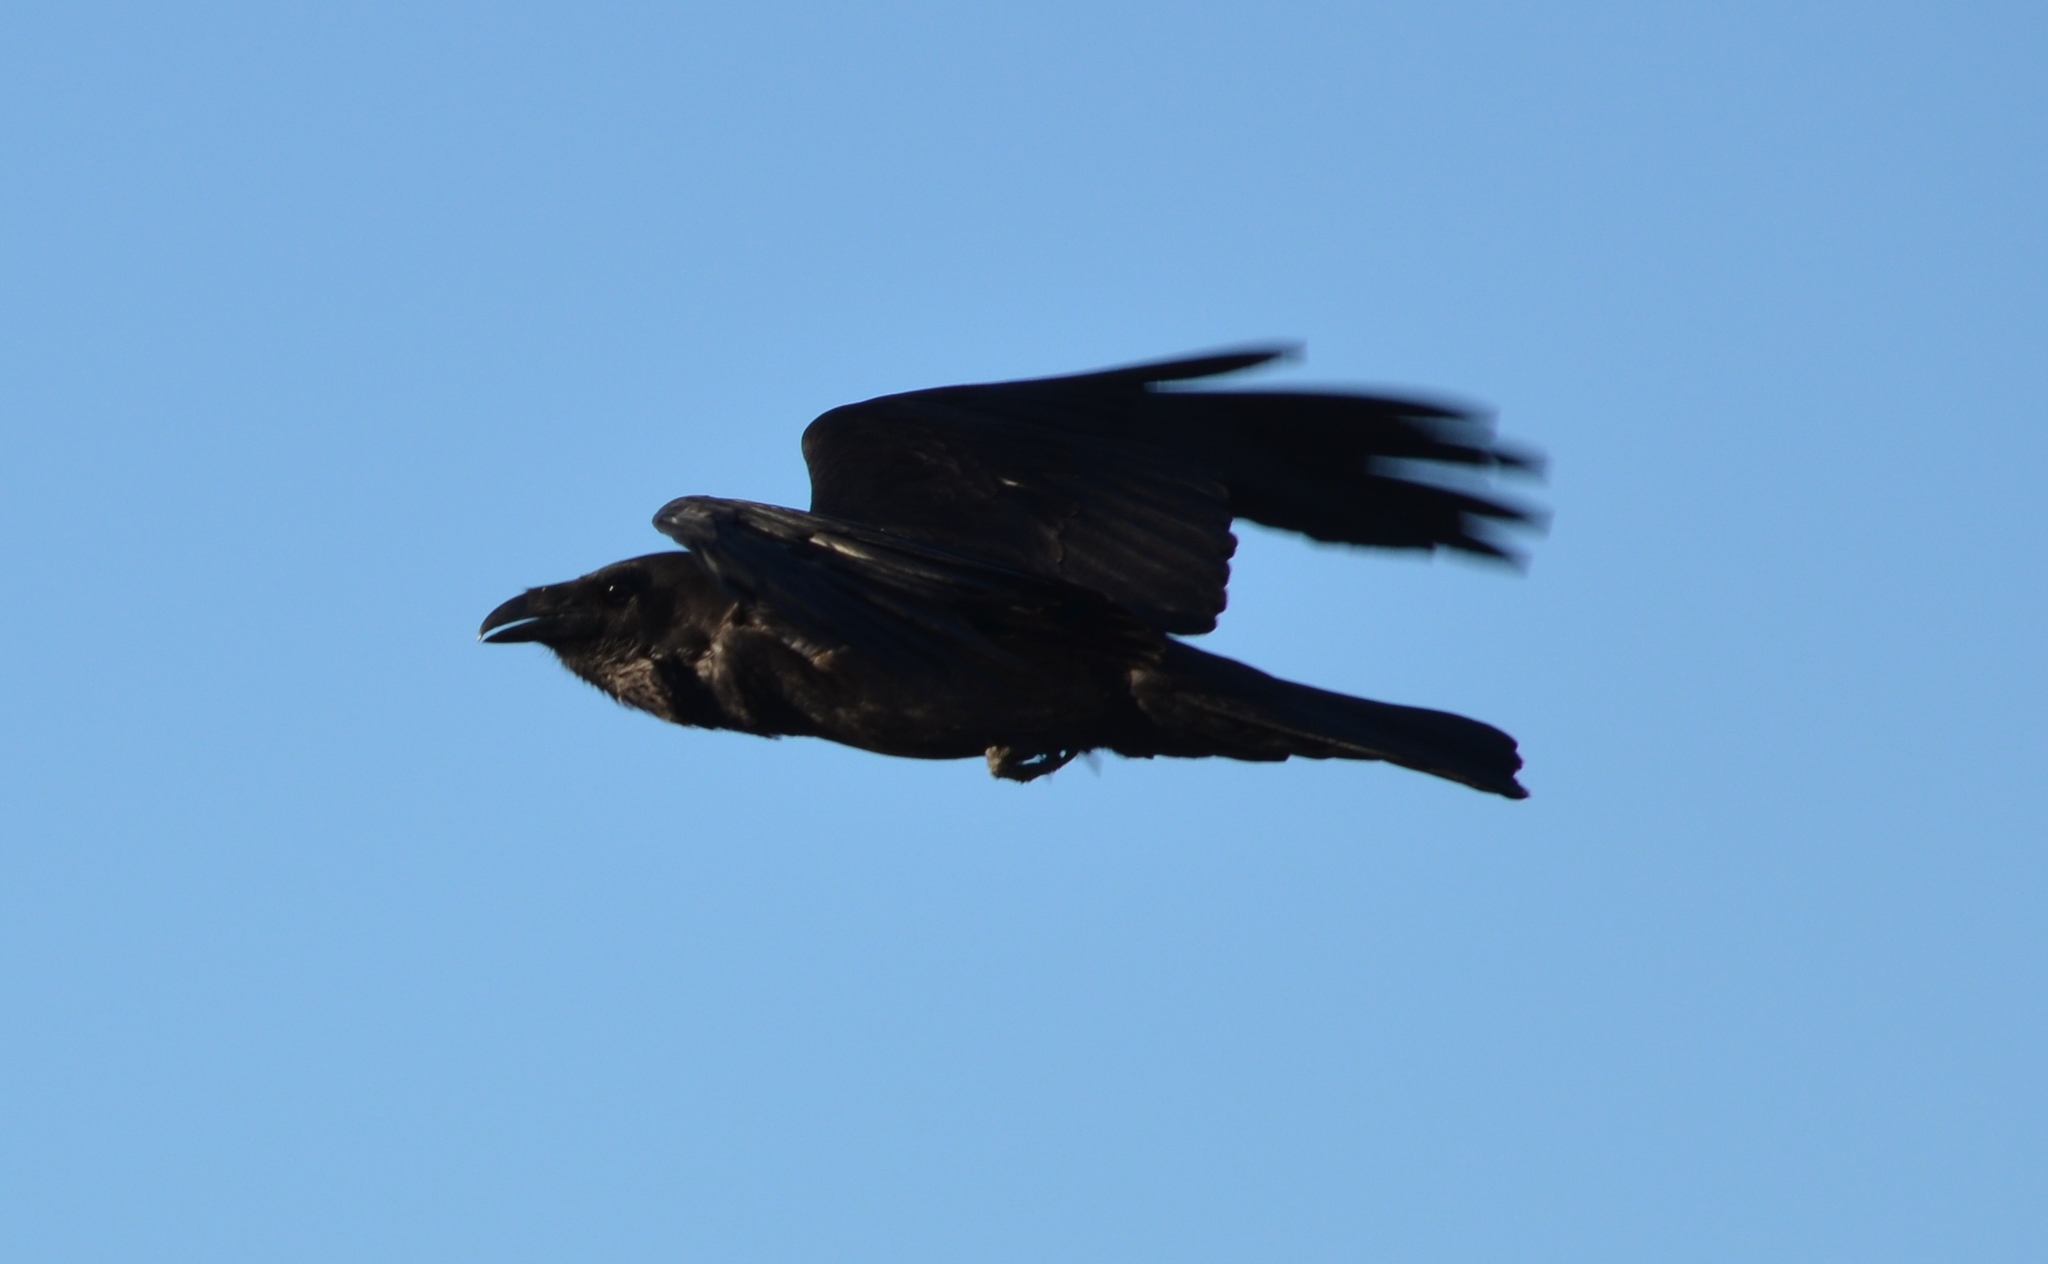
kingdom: Animalia
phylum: Chordata
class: Aves
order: Passeriformes
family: Corvidae
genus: Corvus
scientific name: Corvus corax
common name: Common raven
